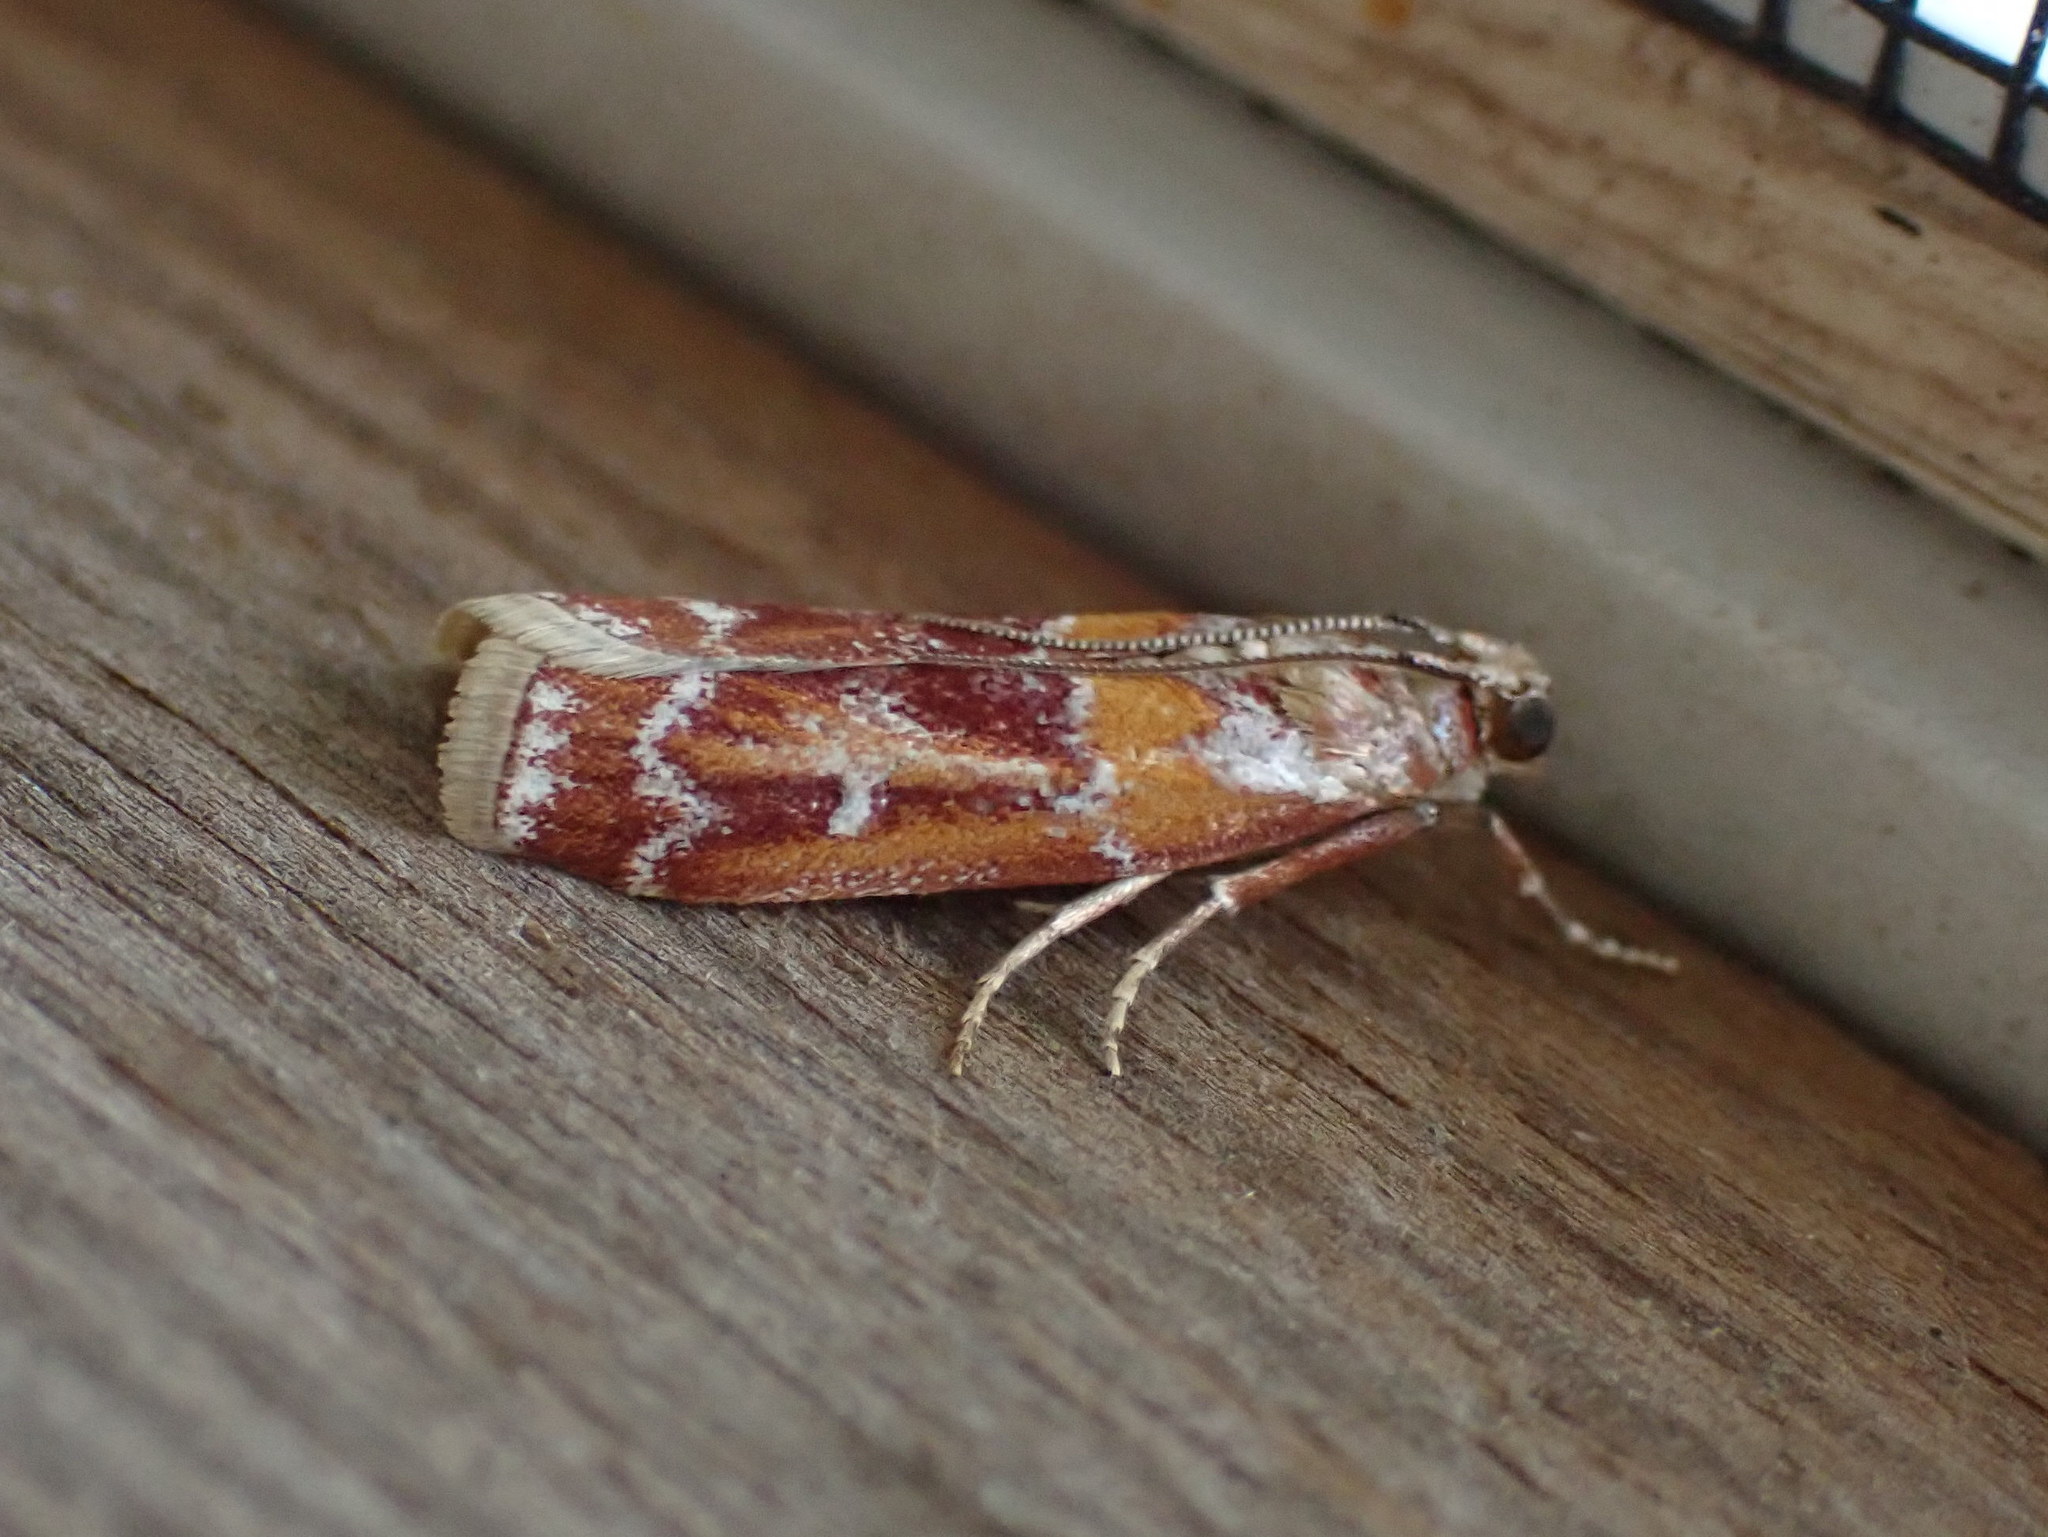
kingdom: Animalia
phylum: Arthropoda
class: Insecta
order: Lepidoptera
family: Pyralidae
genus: Dioryctria
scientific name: Dioryctria disclusa
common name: Rusty pine cone moth
